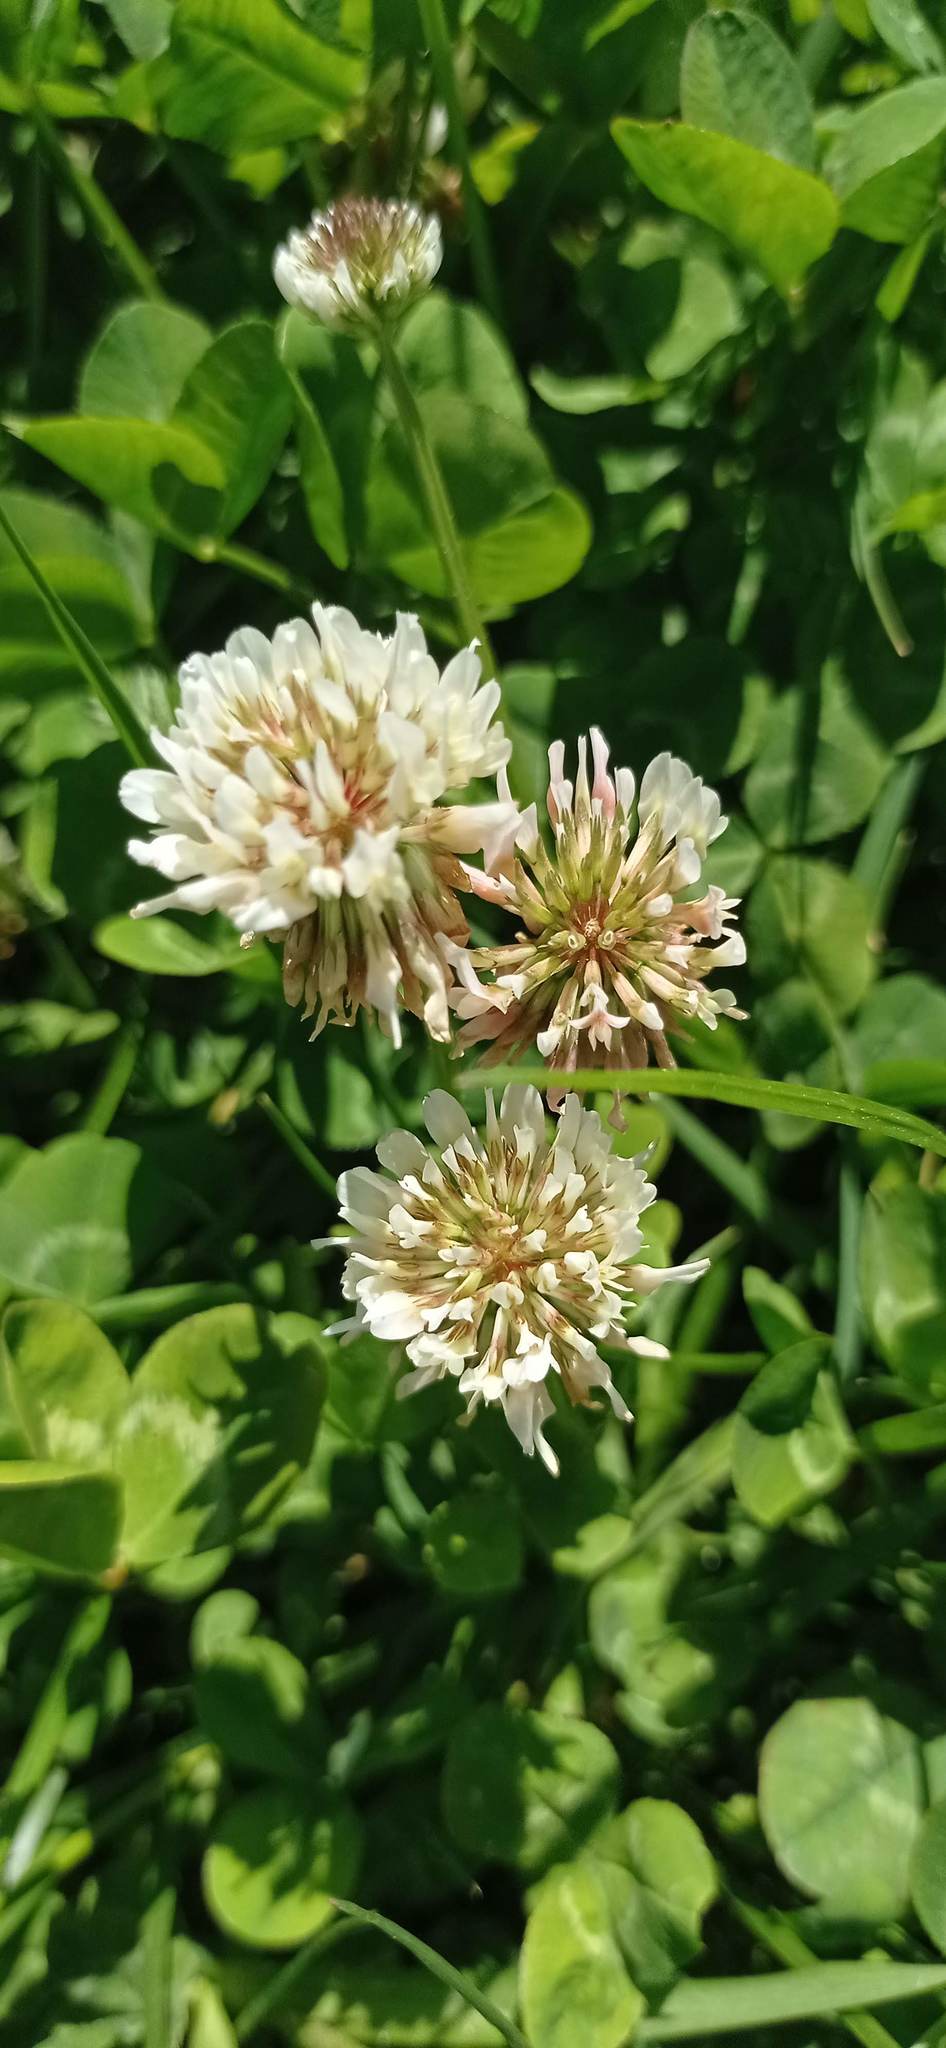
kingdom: Plantae
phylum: Tracheophyta
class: Magnoliopsida
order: Fabales
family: Fabaceae
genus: Trifolium
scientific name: Trifolium repens
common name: White clover
